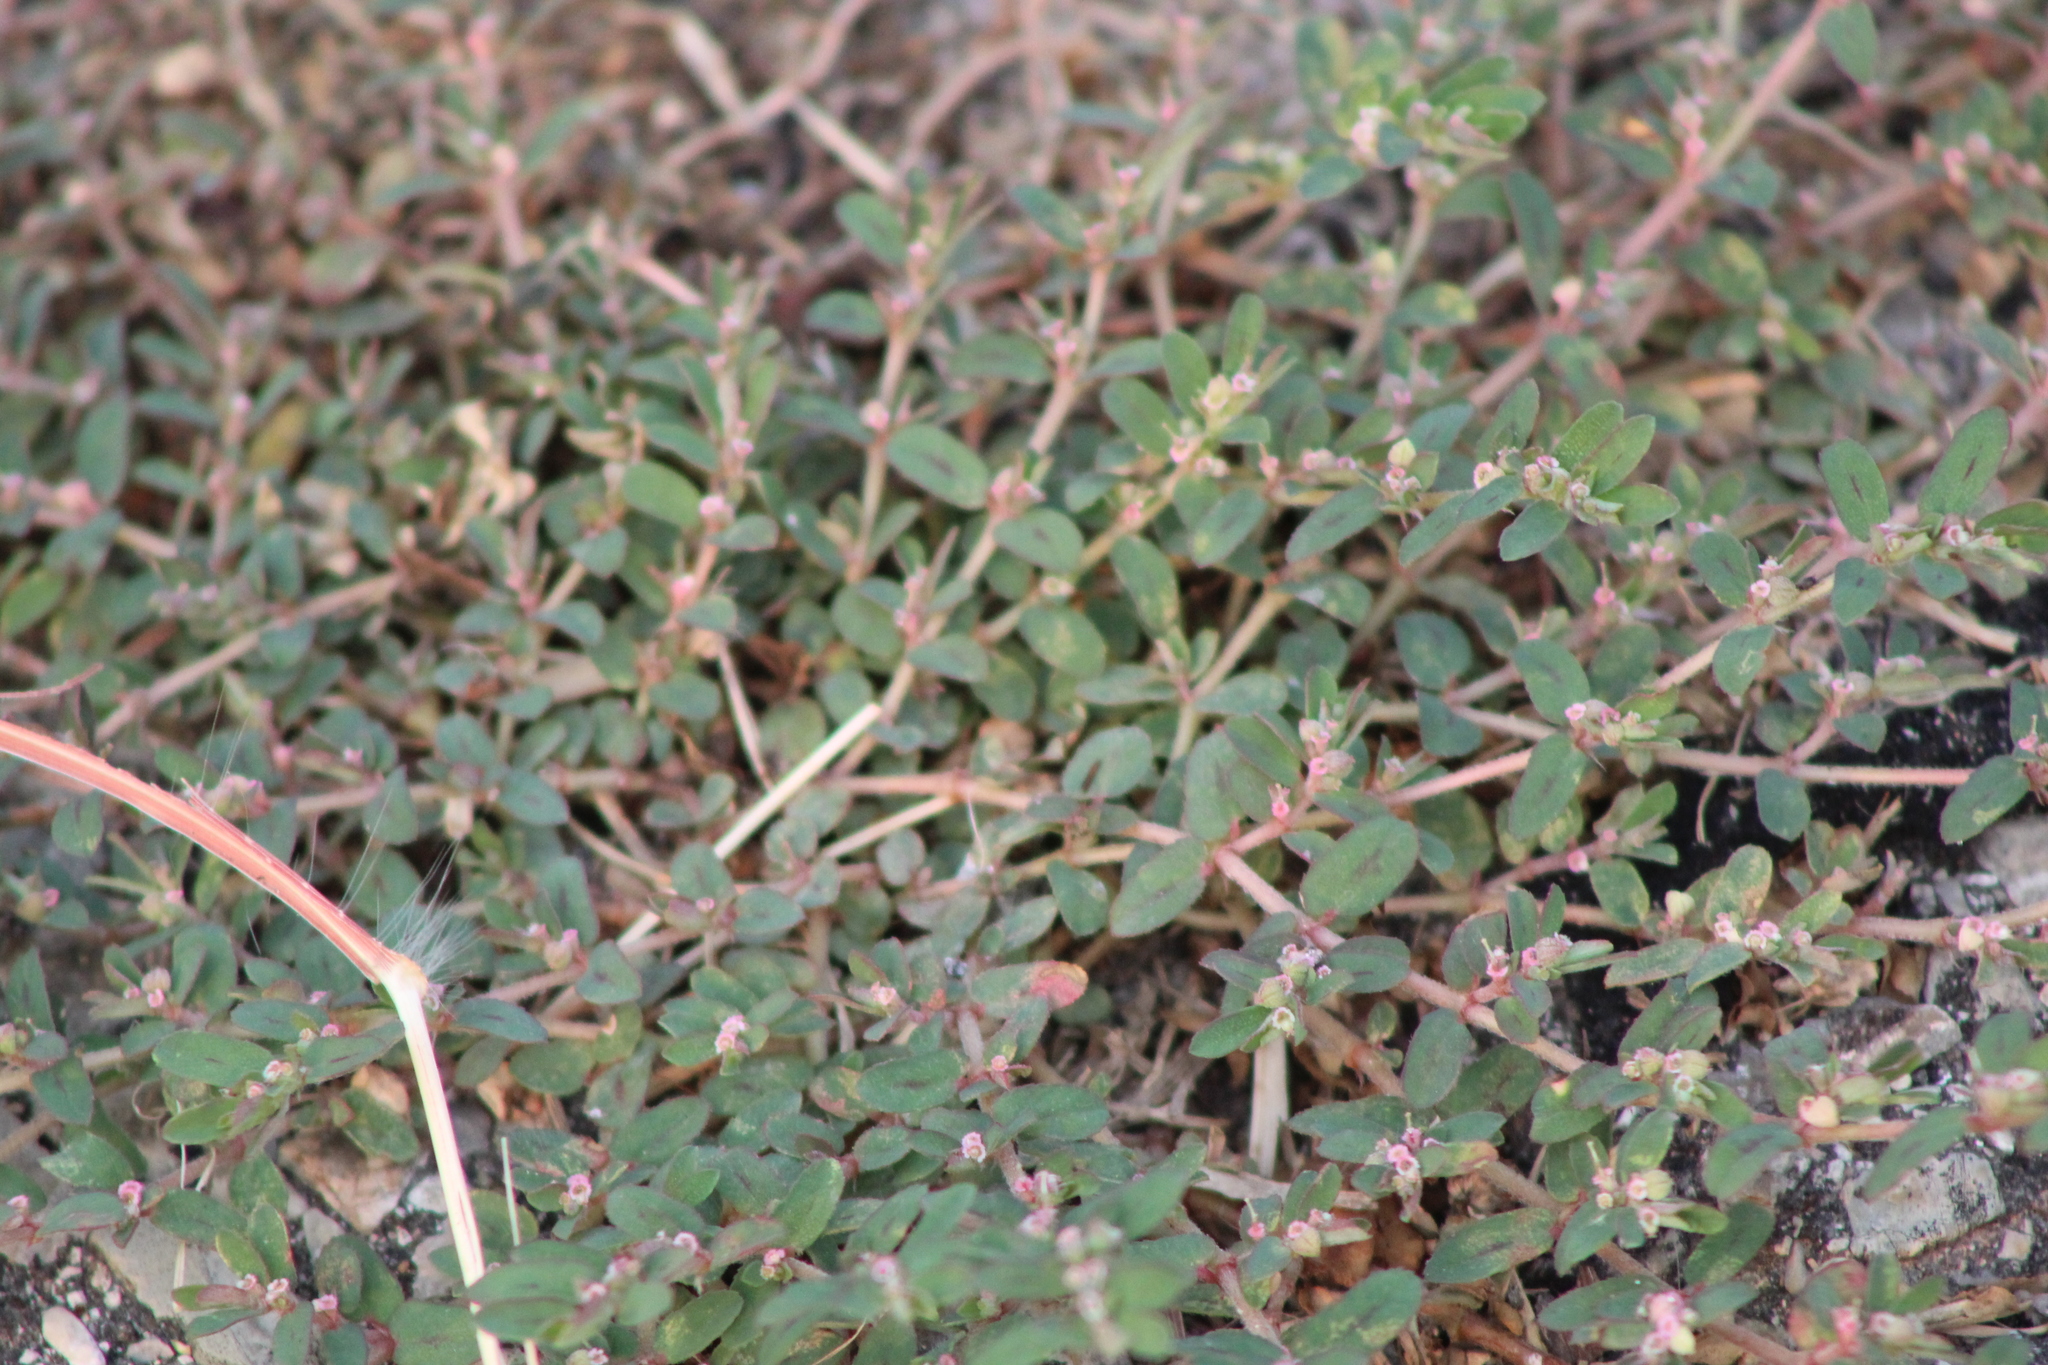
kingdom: Plantae
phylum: Tracheophyta
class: Magnoliopsida
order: Malpighiales
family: Euphorbiaceae
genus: Euphorbia
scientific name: Euphorbia maculata
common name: Spotted spurge
